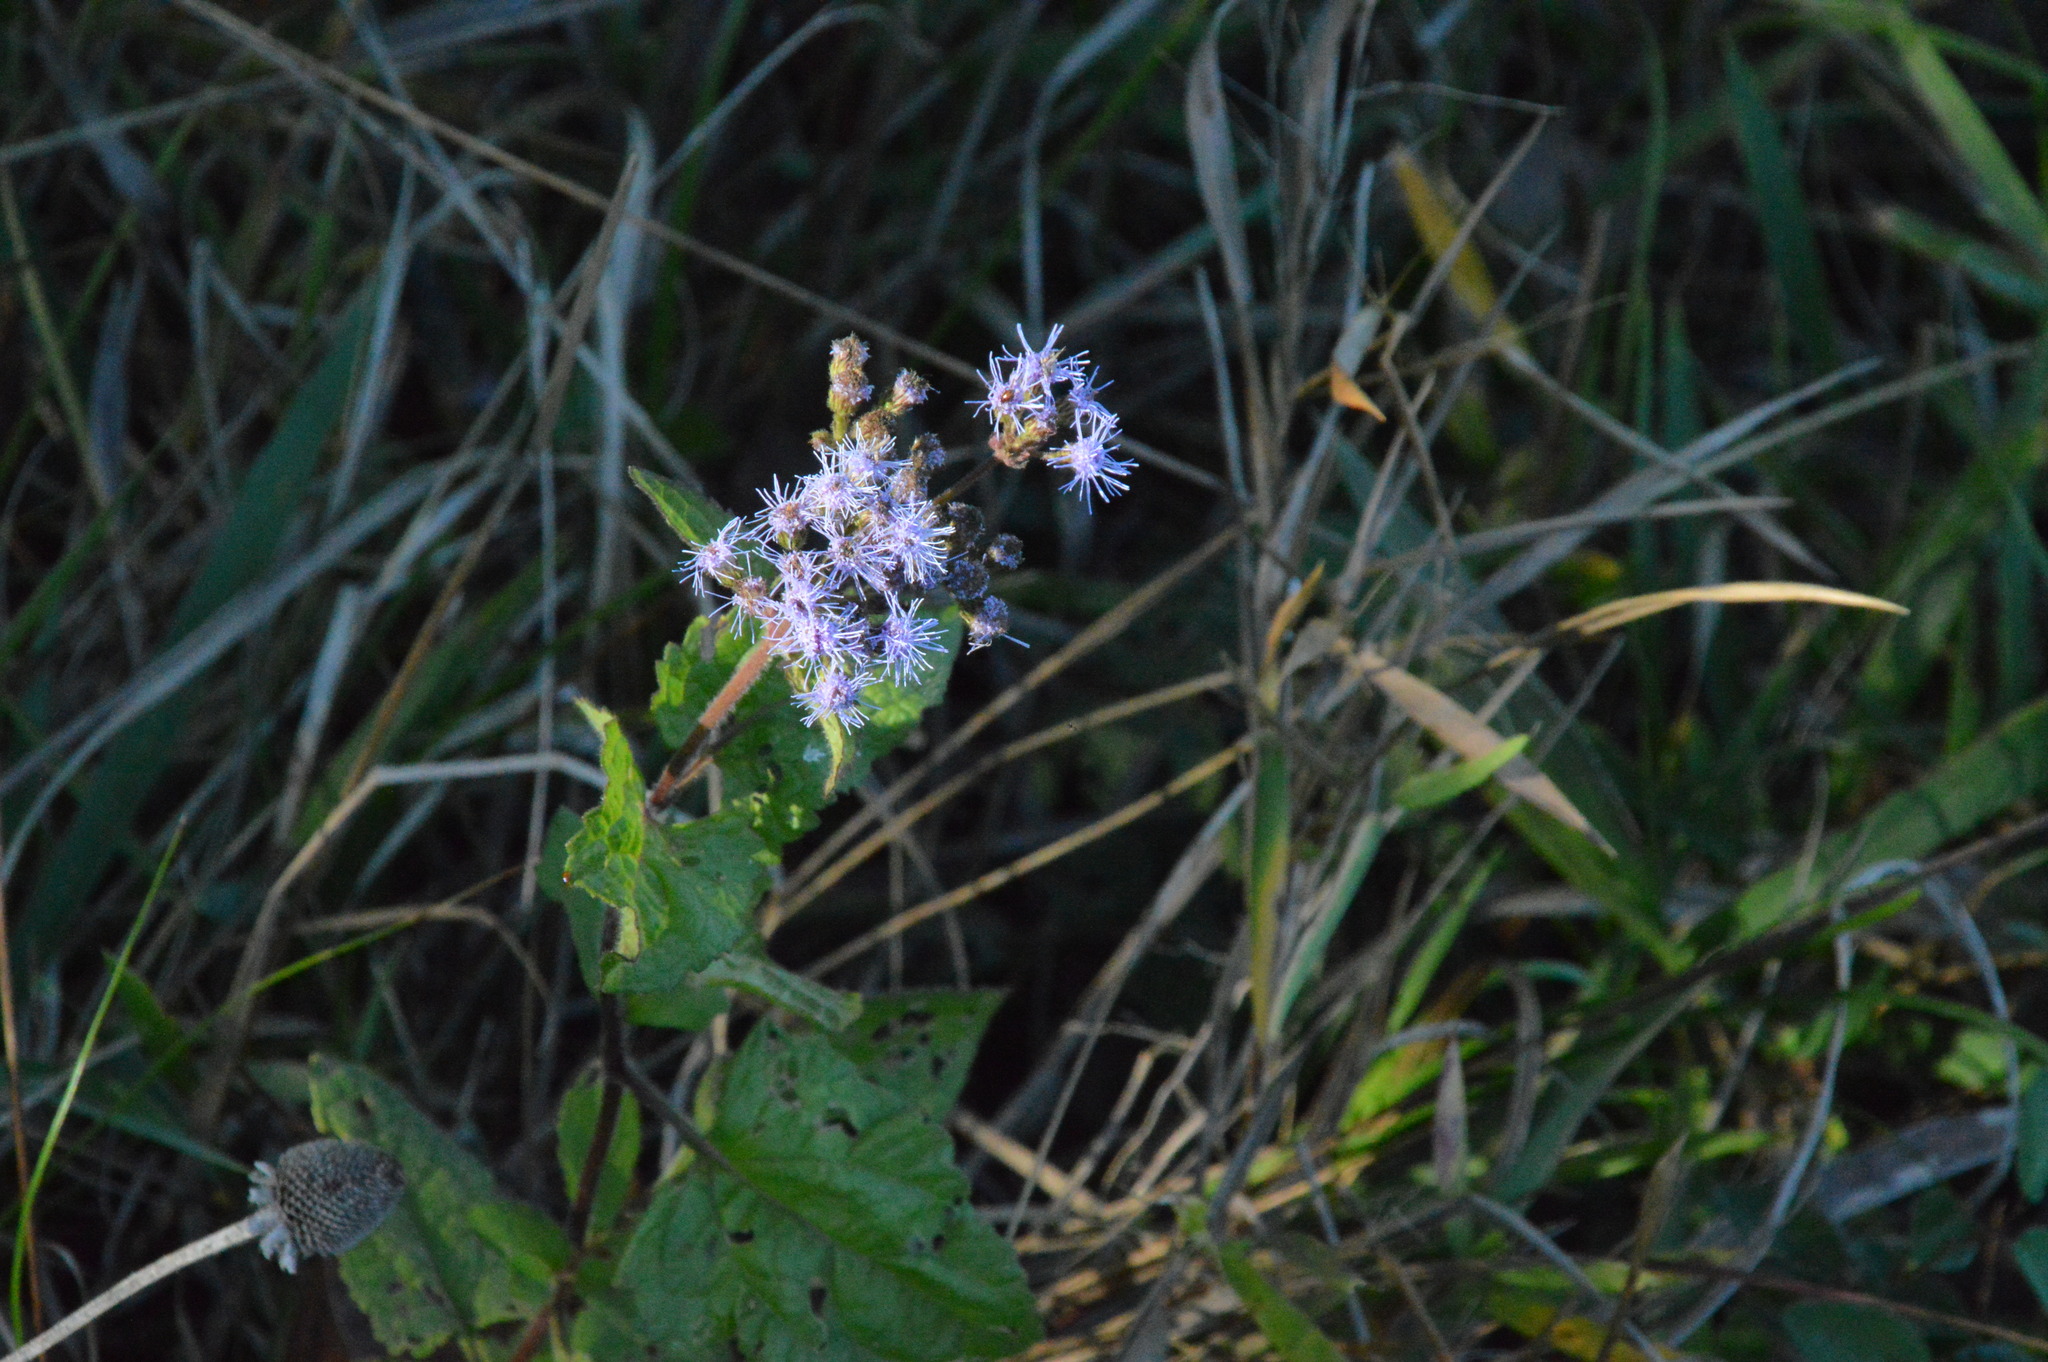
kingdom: Plantae
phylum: Tracheophyta
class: Magnoliopsida
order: Asterales
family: Asteraceae
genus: Conoclinium
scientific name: Conoclinium coelestinum
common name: Blue mistflower
